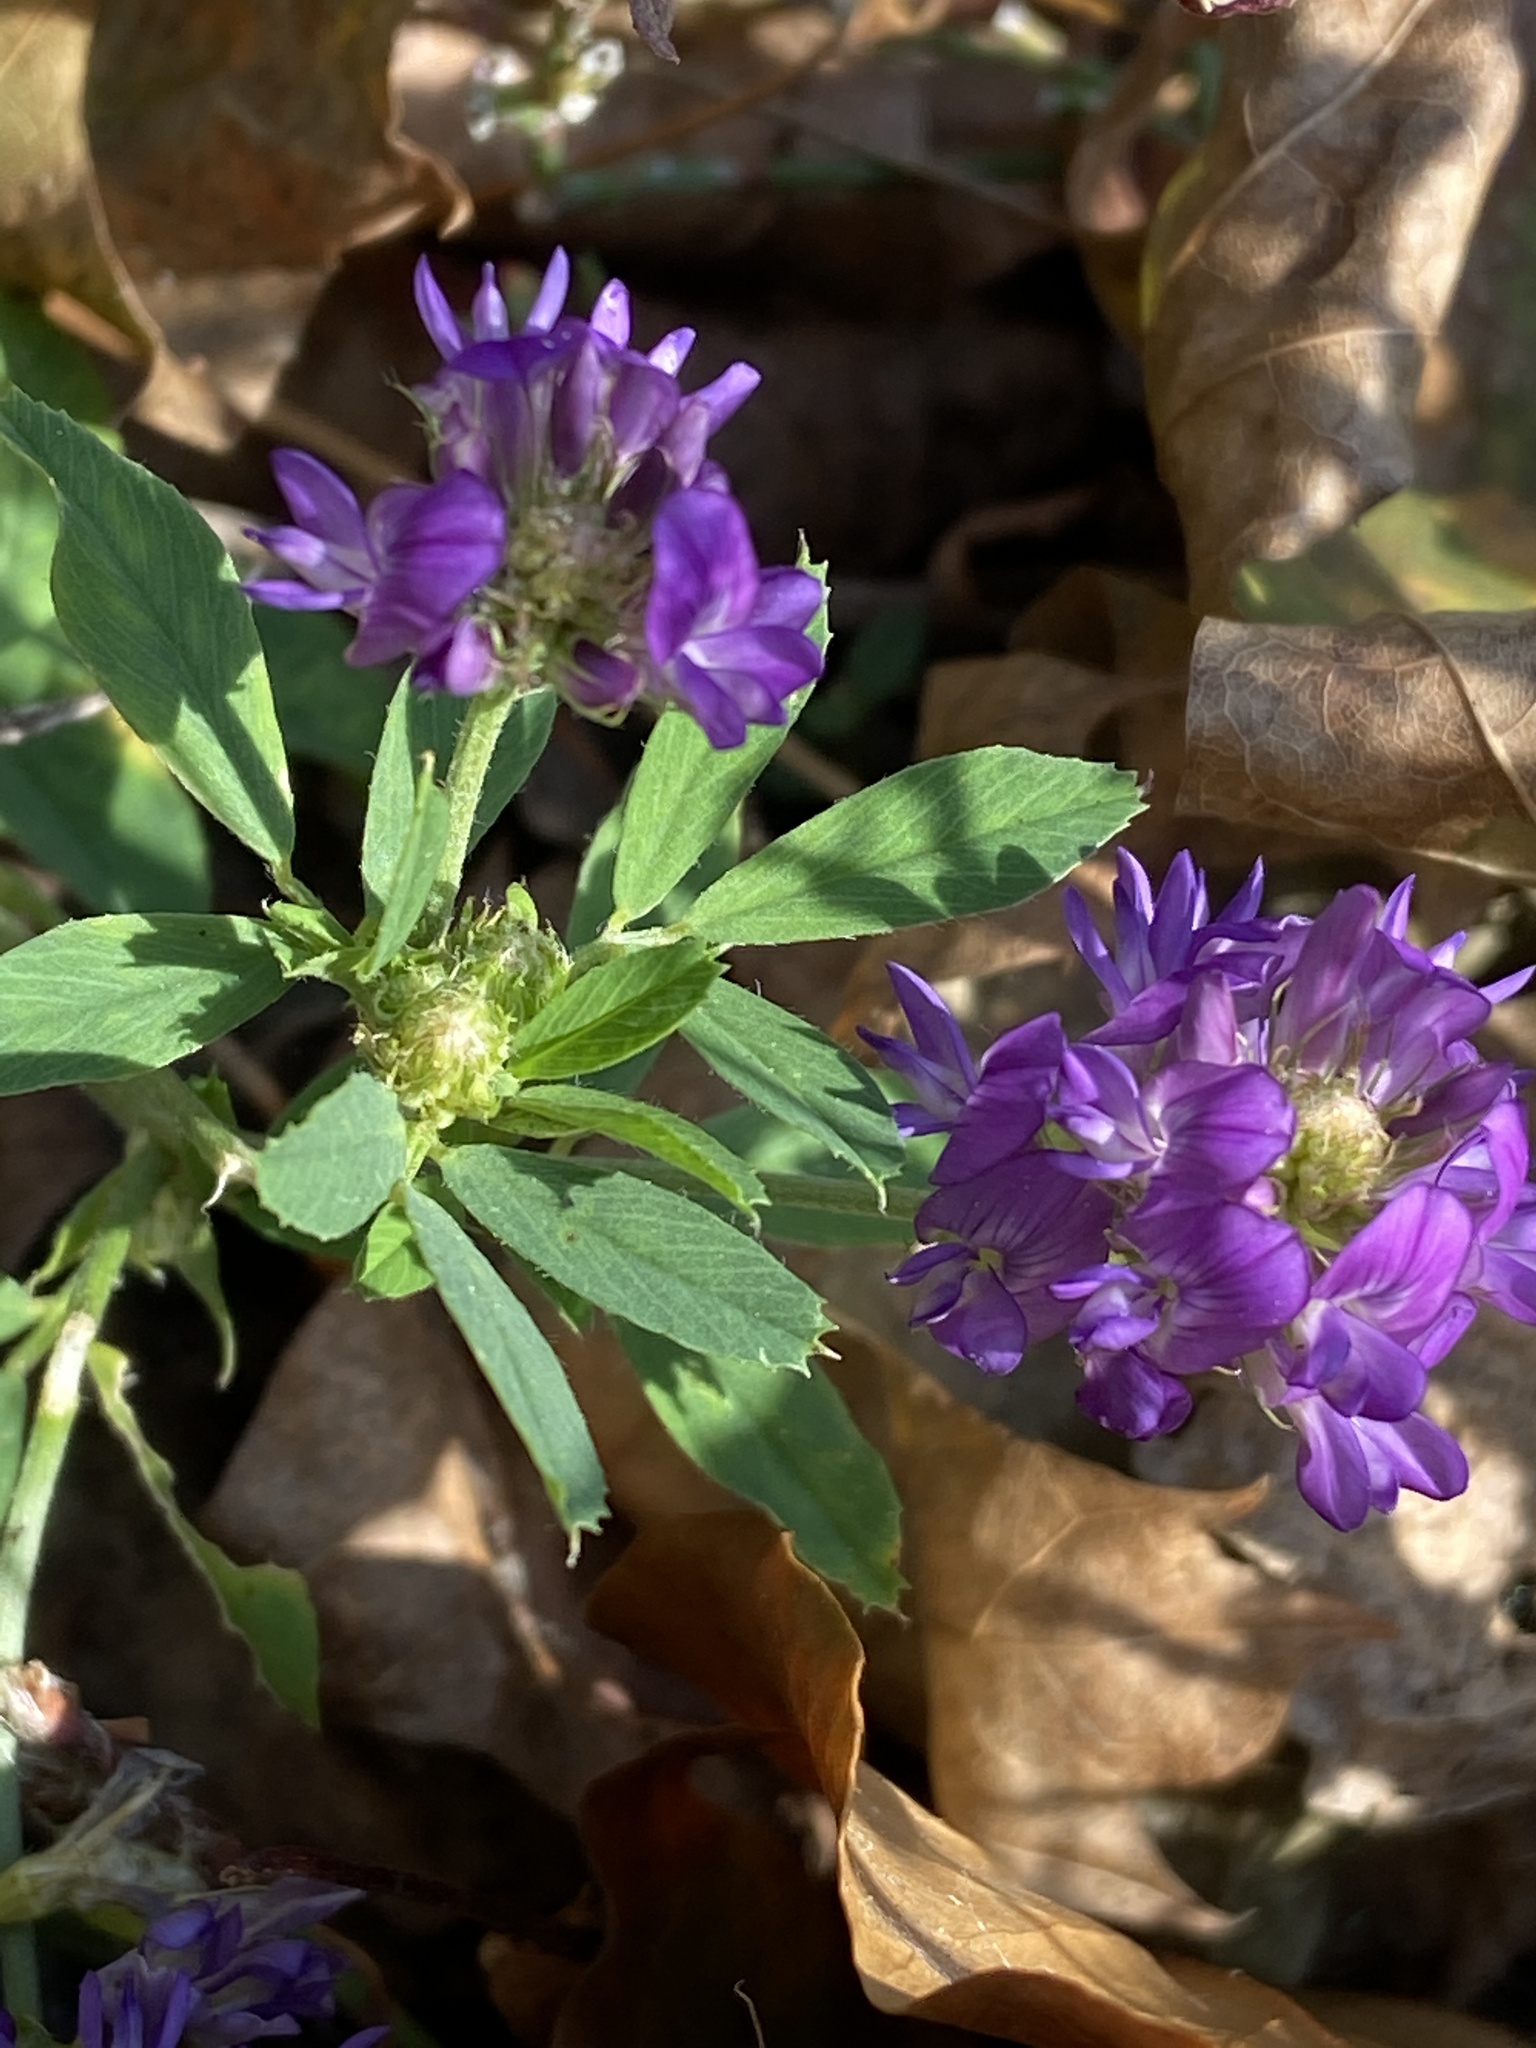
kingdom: Plantae
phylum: Tracheophyta
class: Magnoliopsida
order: Fabales
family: Fabaceae
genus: Medicago
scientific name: Medicago sativa
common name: Alfalfa
